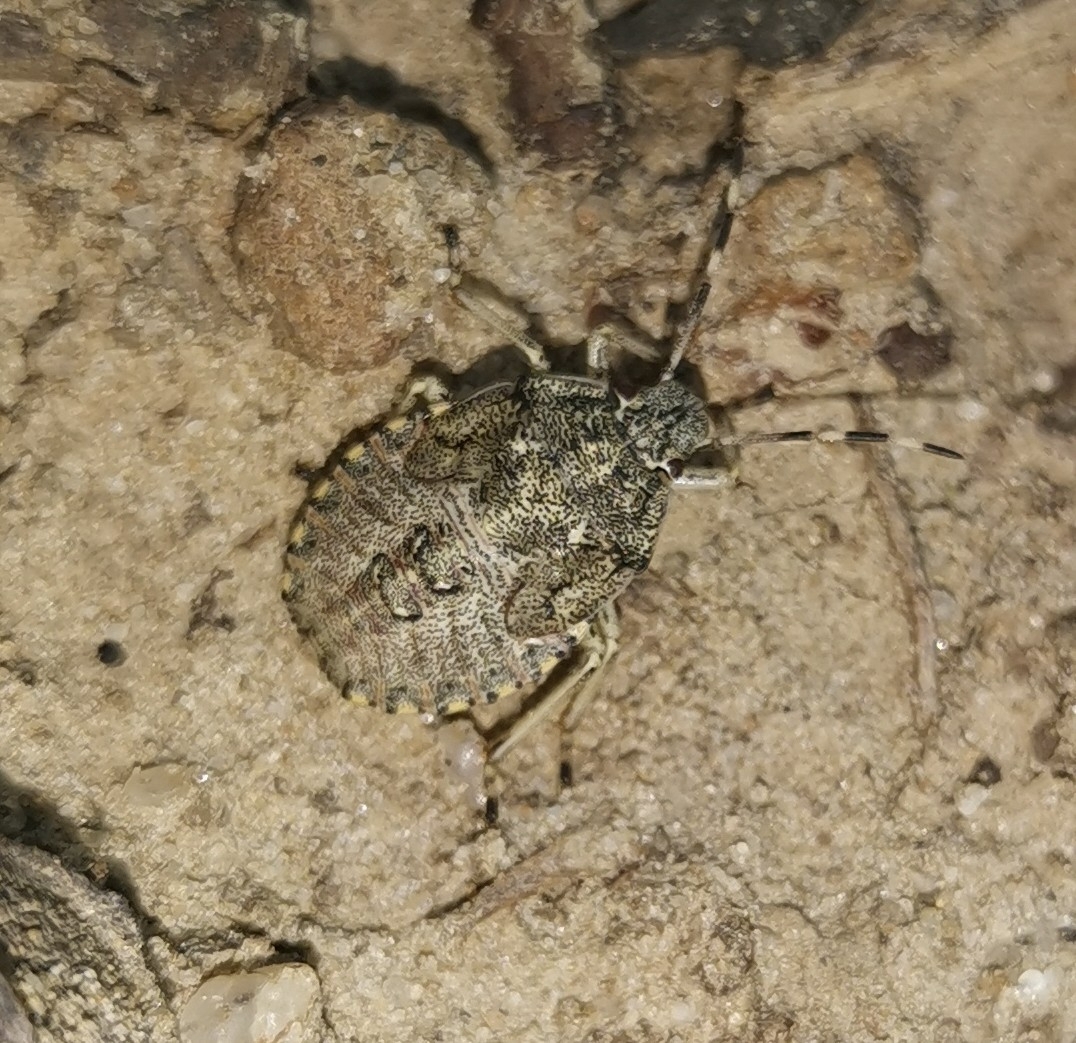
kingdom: Animalia
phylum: Arthropoda
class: Insecta
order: Hemiptera
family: Pentatomidae
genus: Rhaphigaster
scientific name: Rhaphigaster nebulosa
